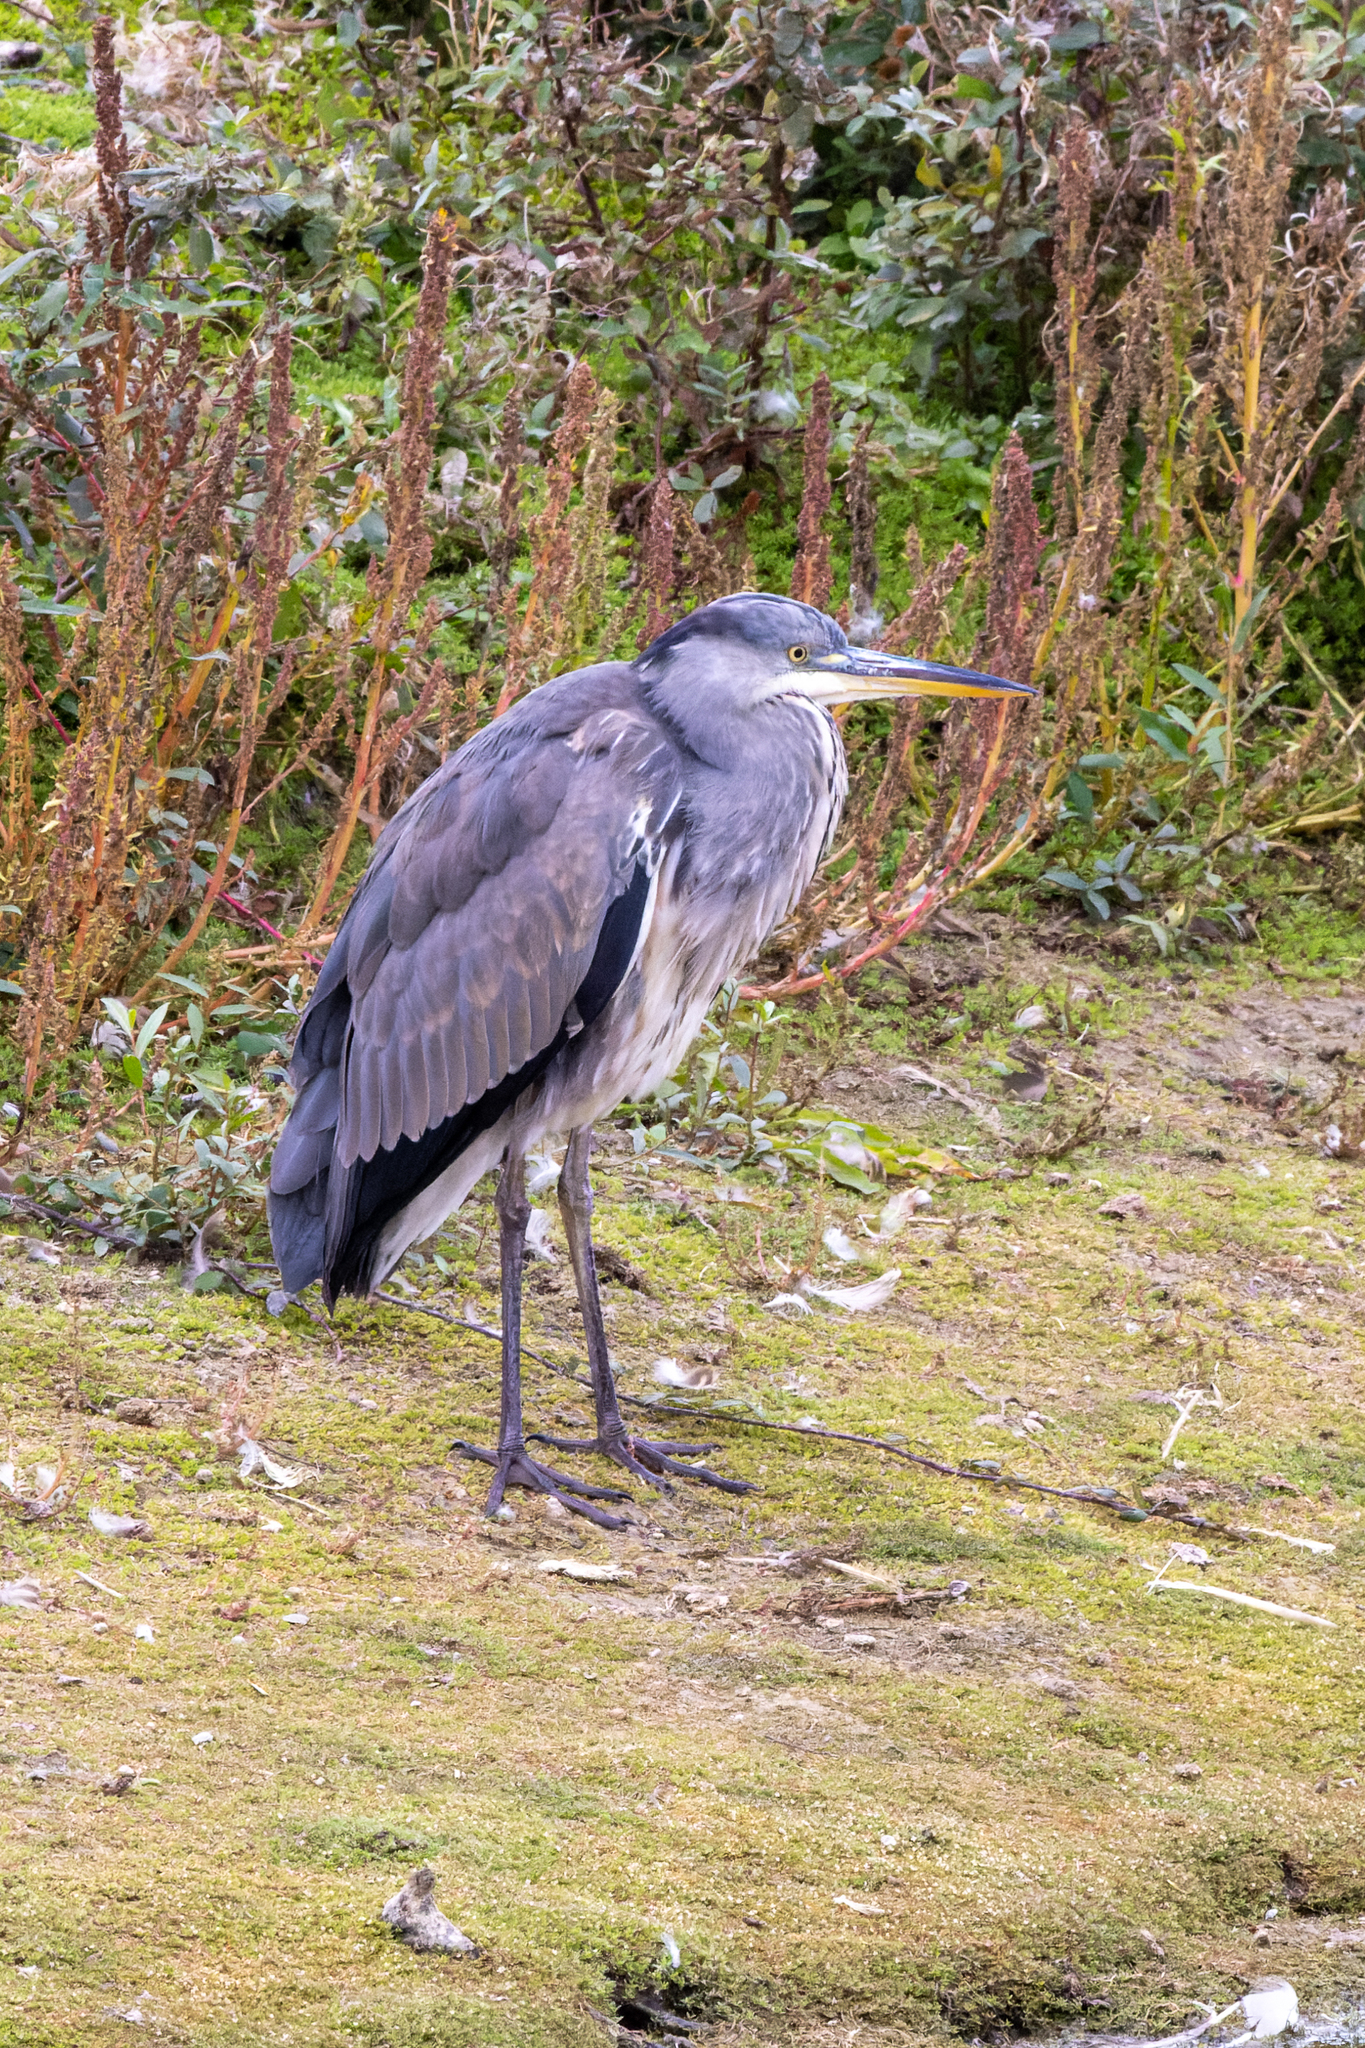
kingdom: Animalia
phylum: Chordata
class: Aves
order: Pelecaniformes
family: Ardeidae
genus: Ardea
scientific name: Ardea cinerea
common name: Grey heron
